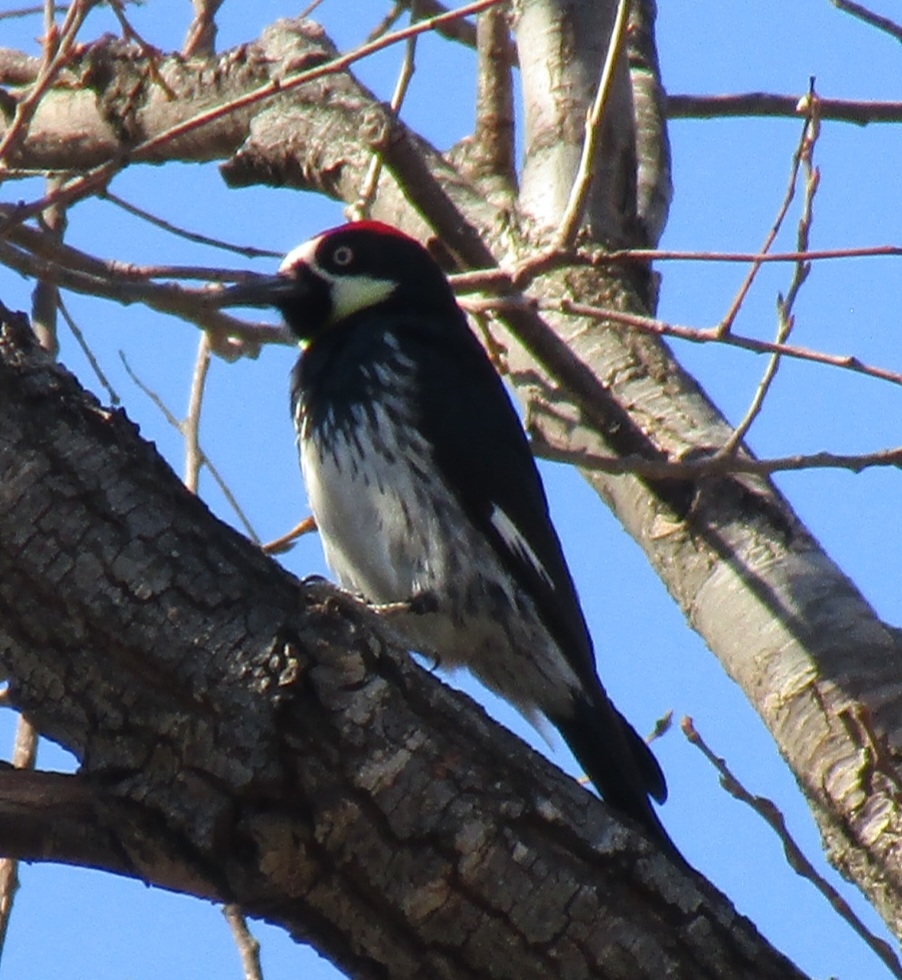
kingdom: Animalia
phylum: Chordata
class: Aves
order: Piciformes
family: Picidae
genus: Melanerpes
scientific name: Melanerpes formicivorus
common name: Acorn woodpecker
